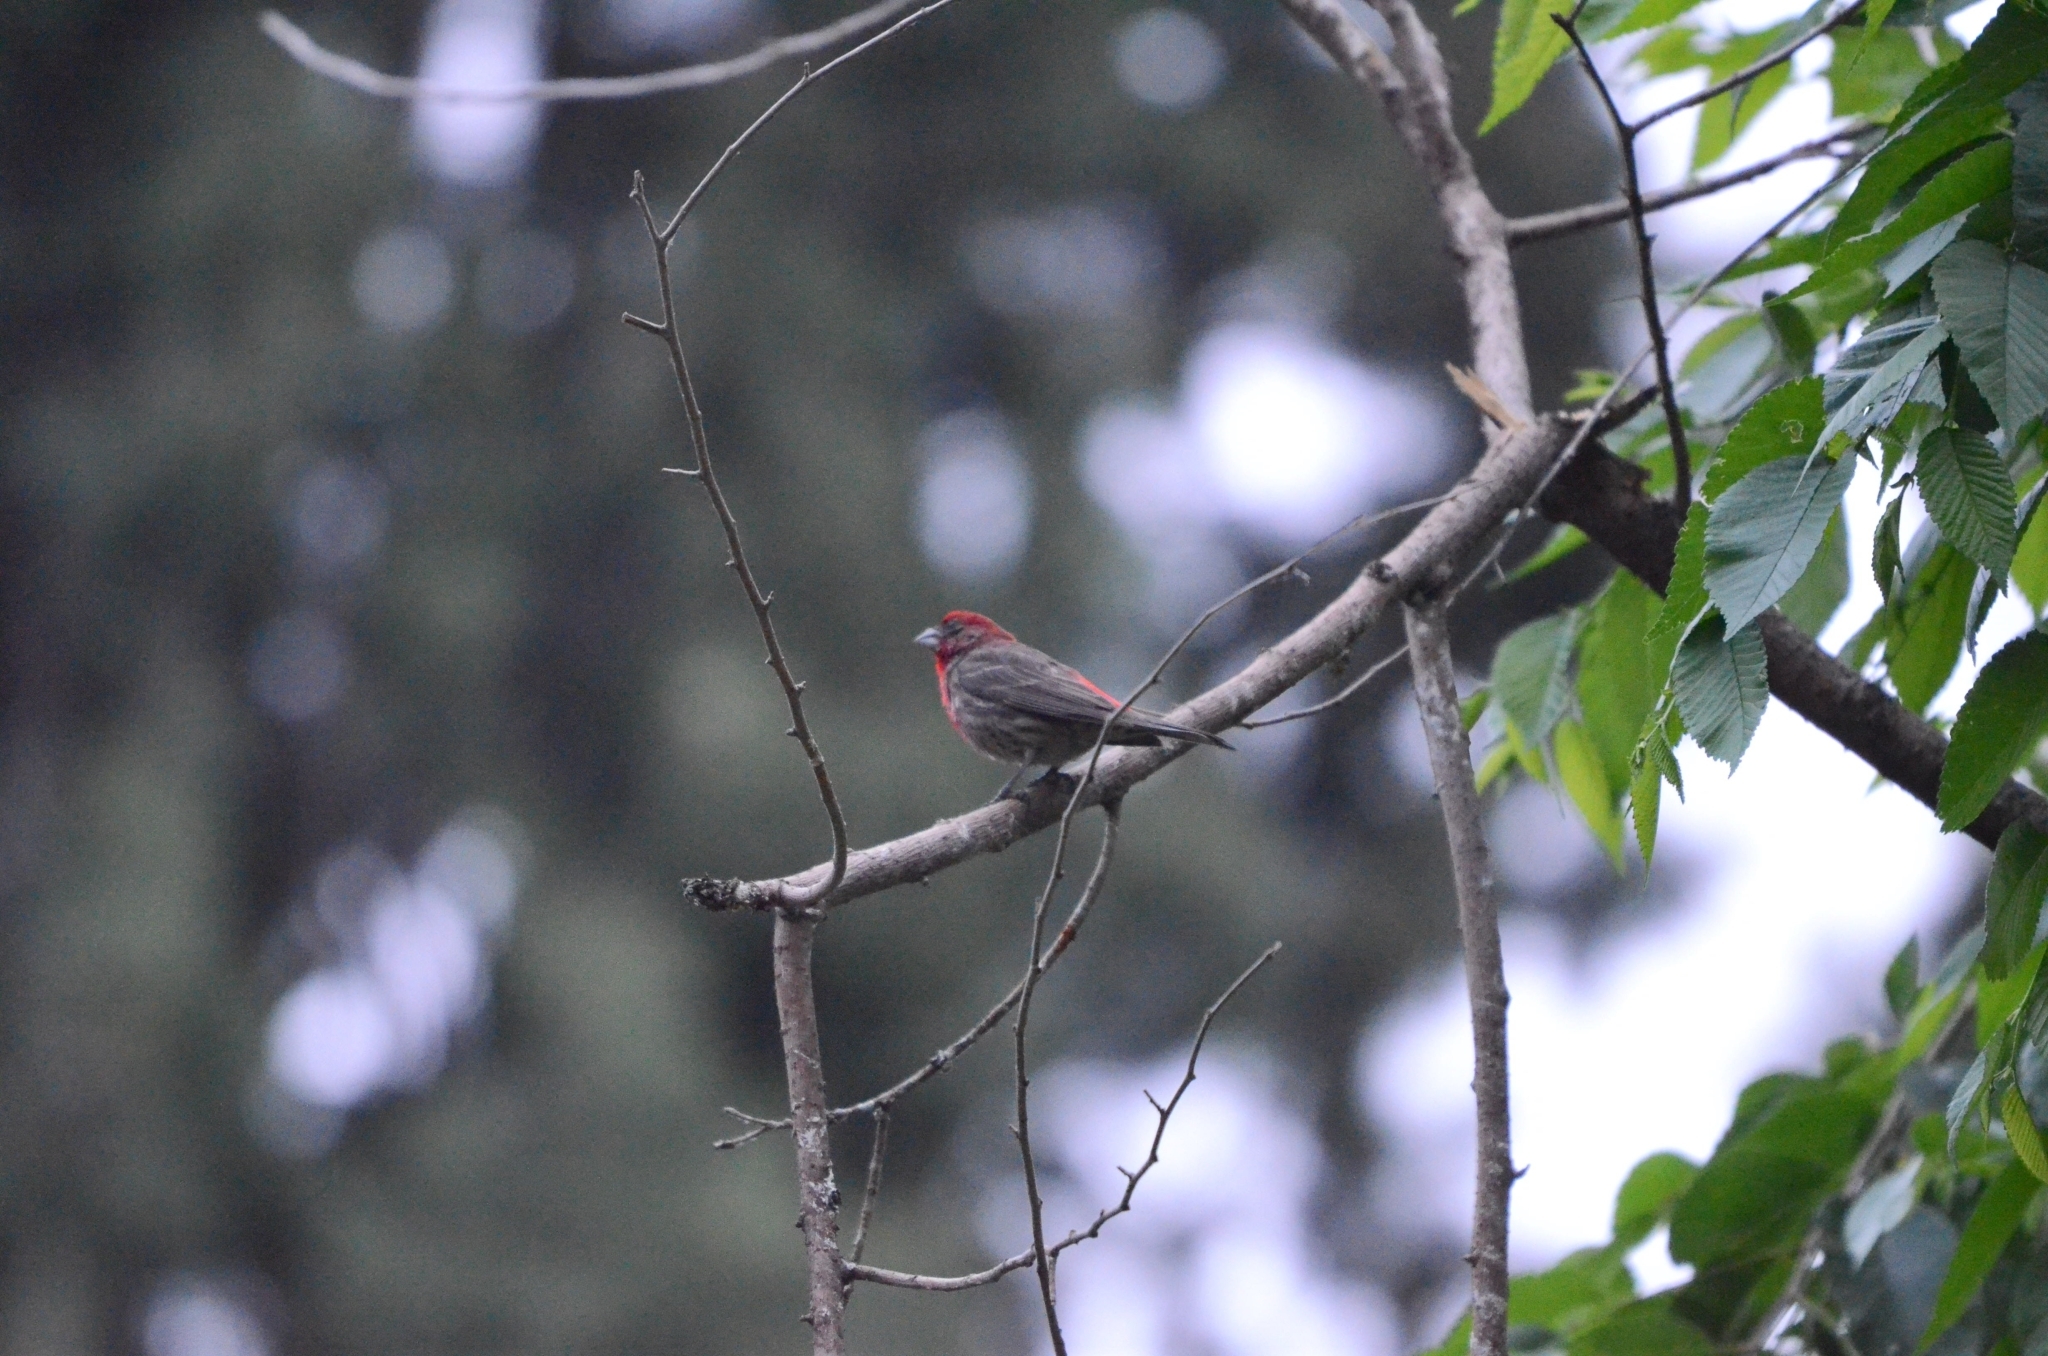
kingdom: Animalia
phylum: Chordata
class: Aves
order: Passeriformes
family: Fringillidae
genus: Haemorhous
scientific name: Haemorhous mexicanus
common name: House finch
